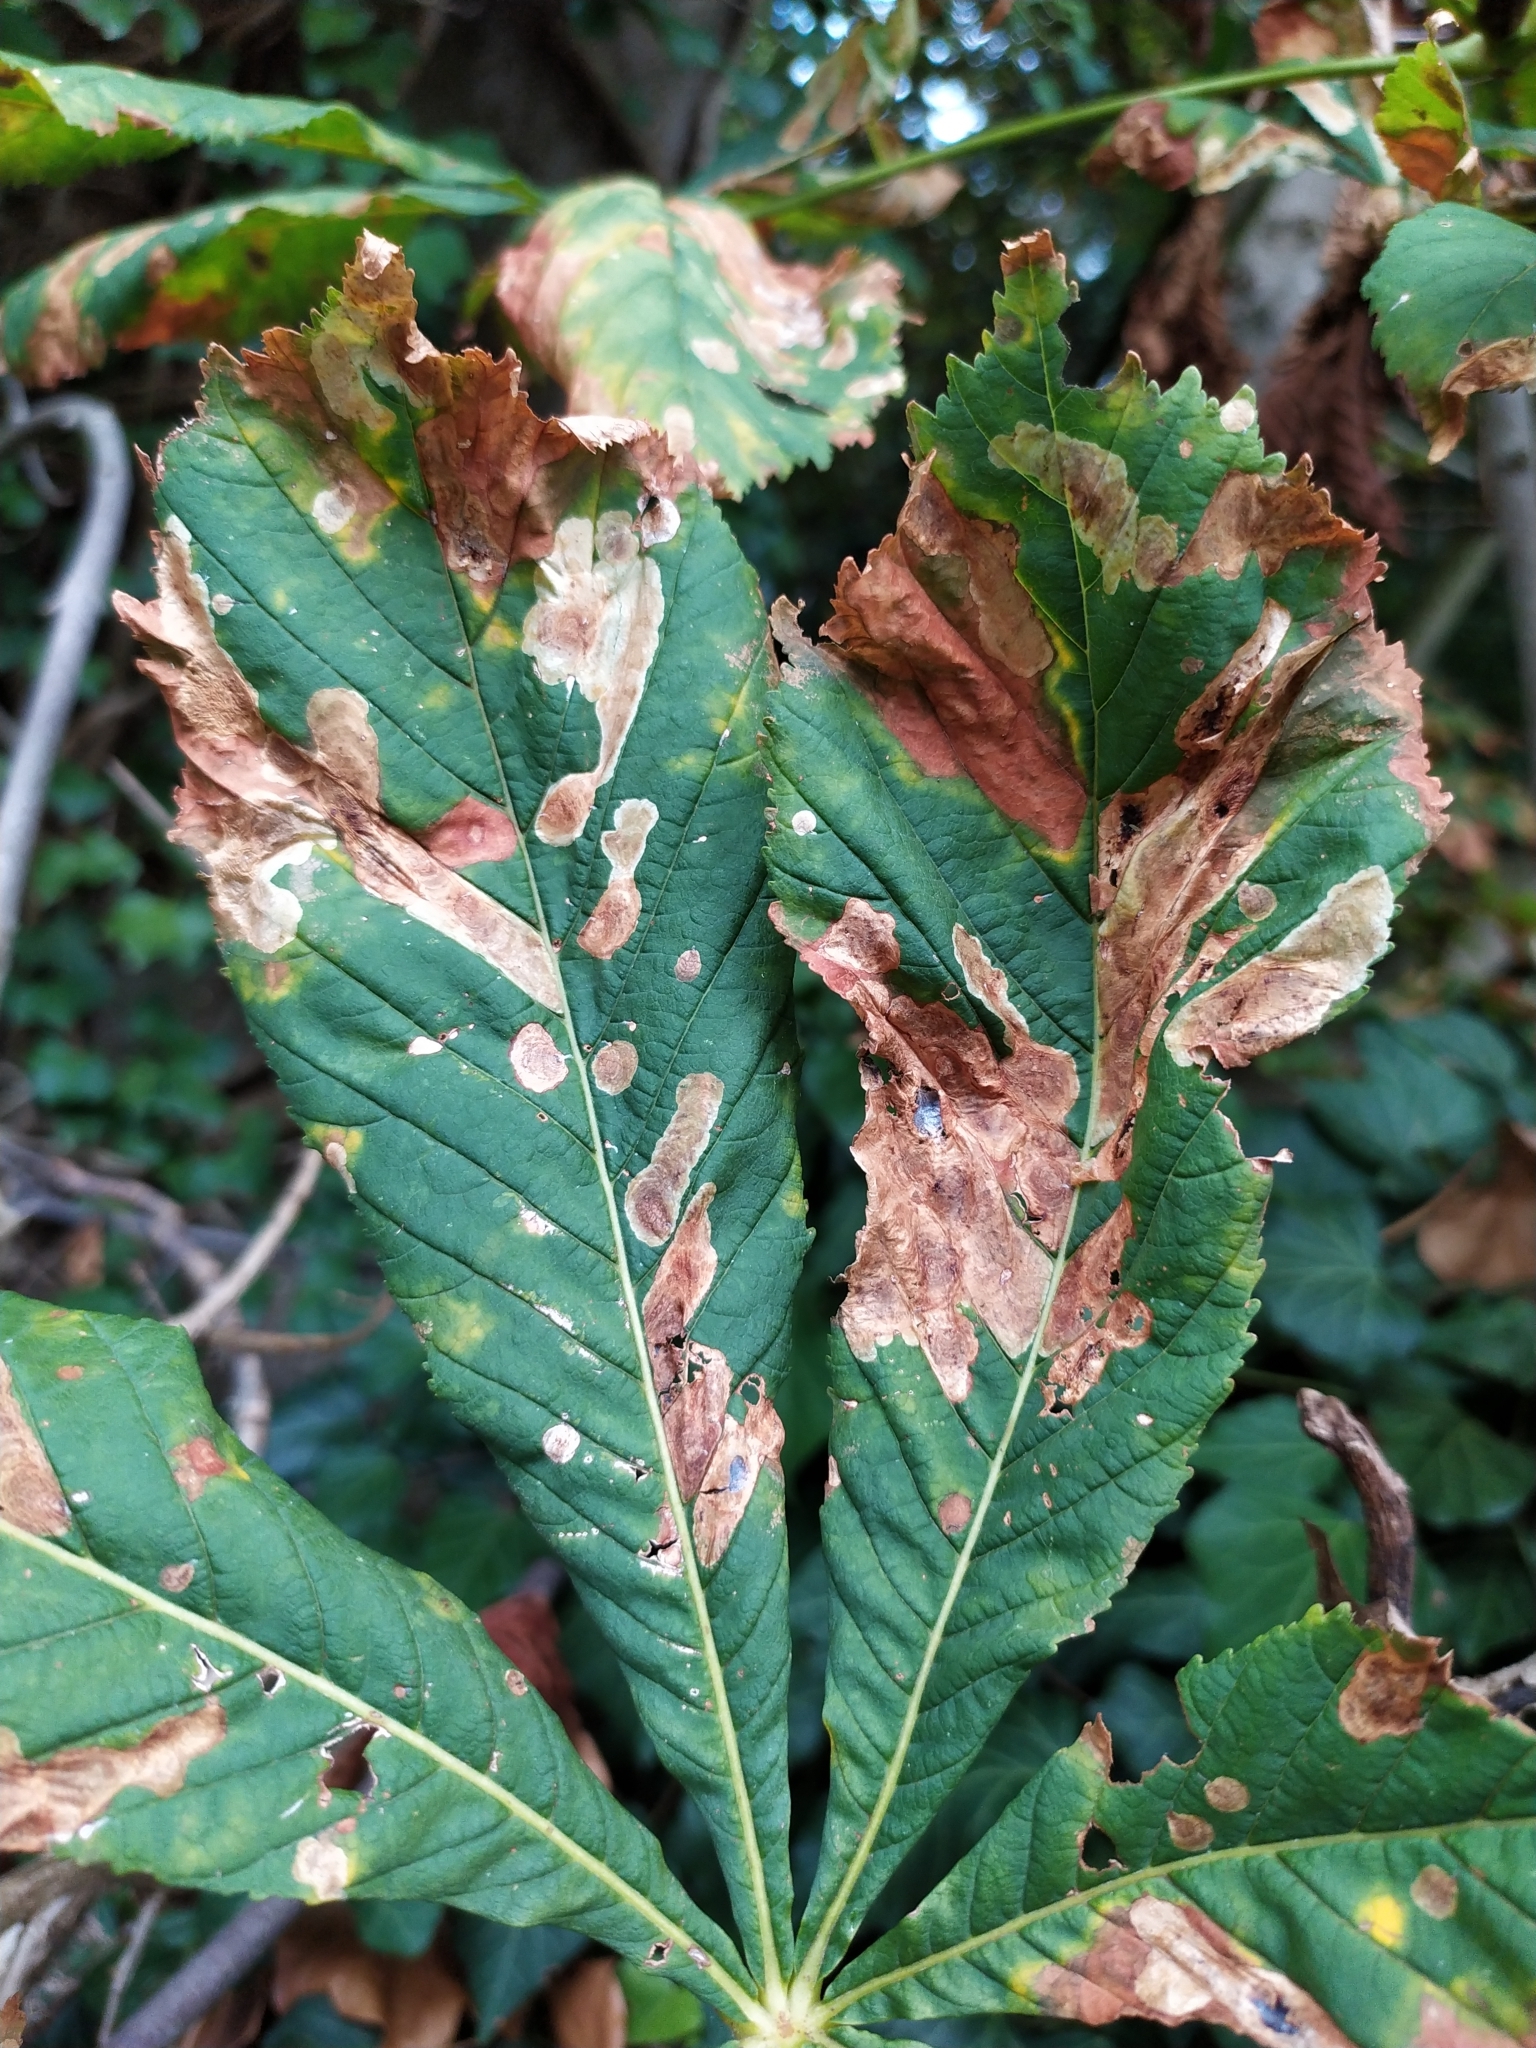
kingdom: Animalia
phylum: Arthropoda
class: Insecta
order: Lepidoptera
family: Gracillariidae
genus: Cameraria
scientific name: Cameraria ohridella
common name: Horse-chestnut leaf-miner
